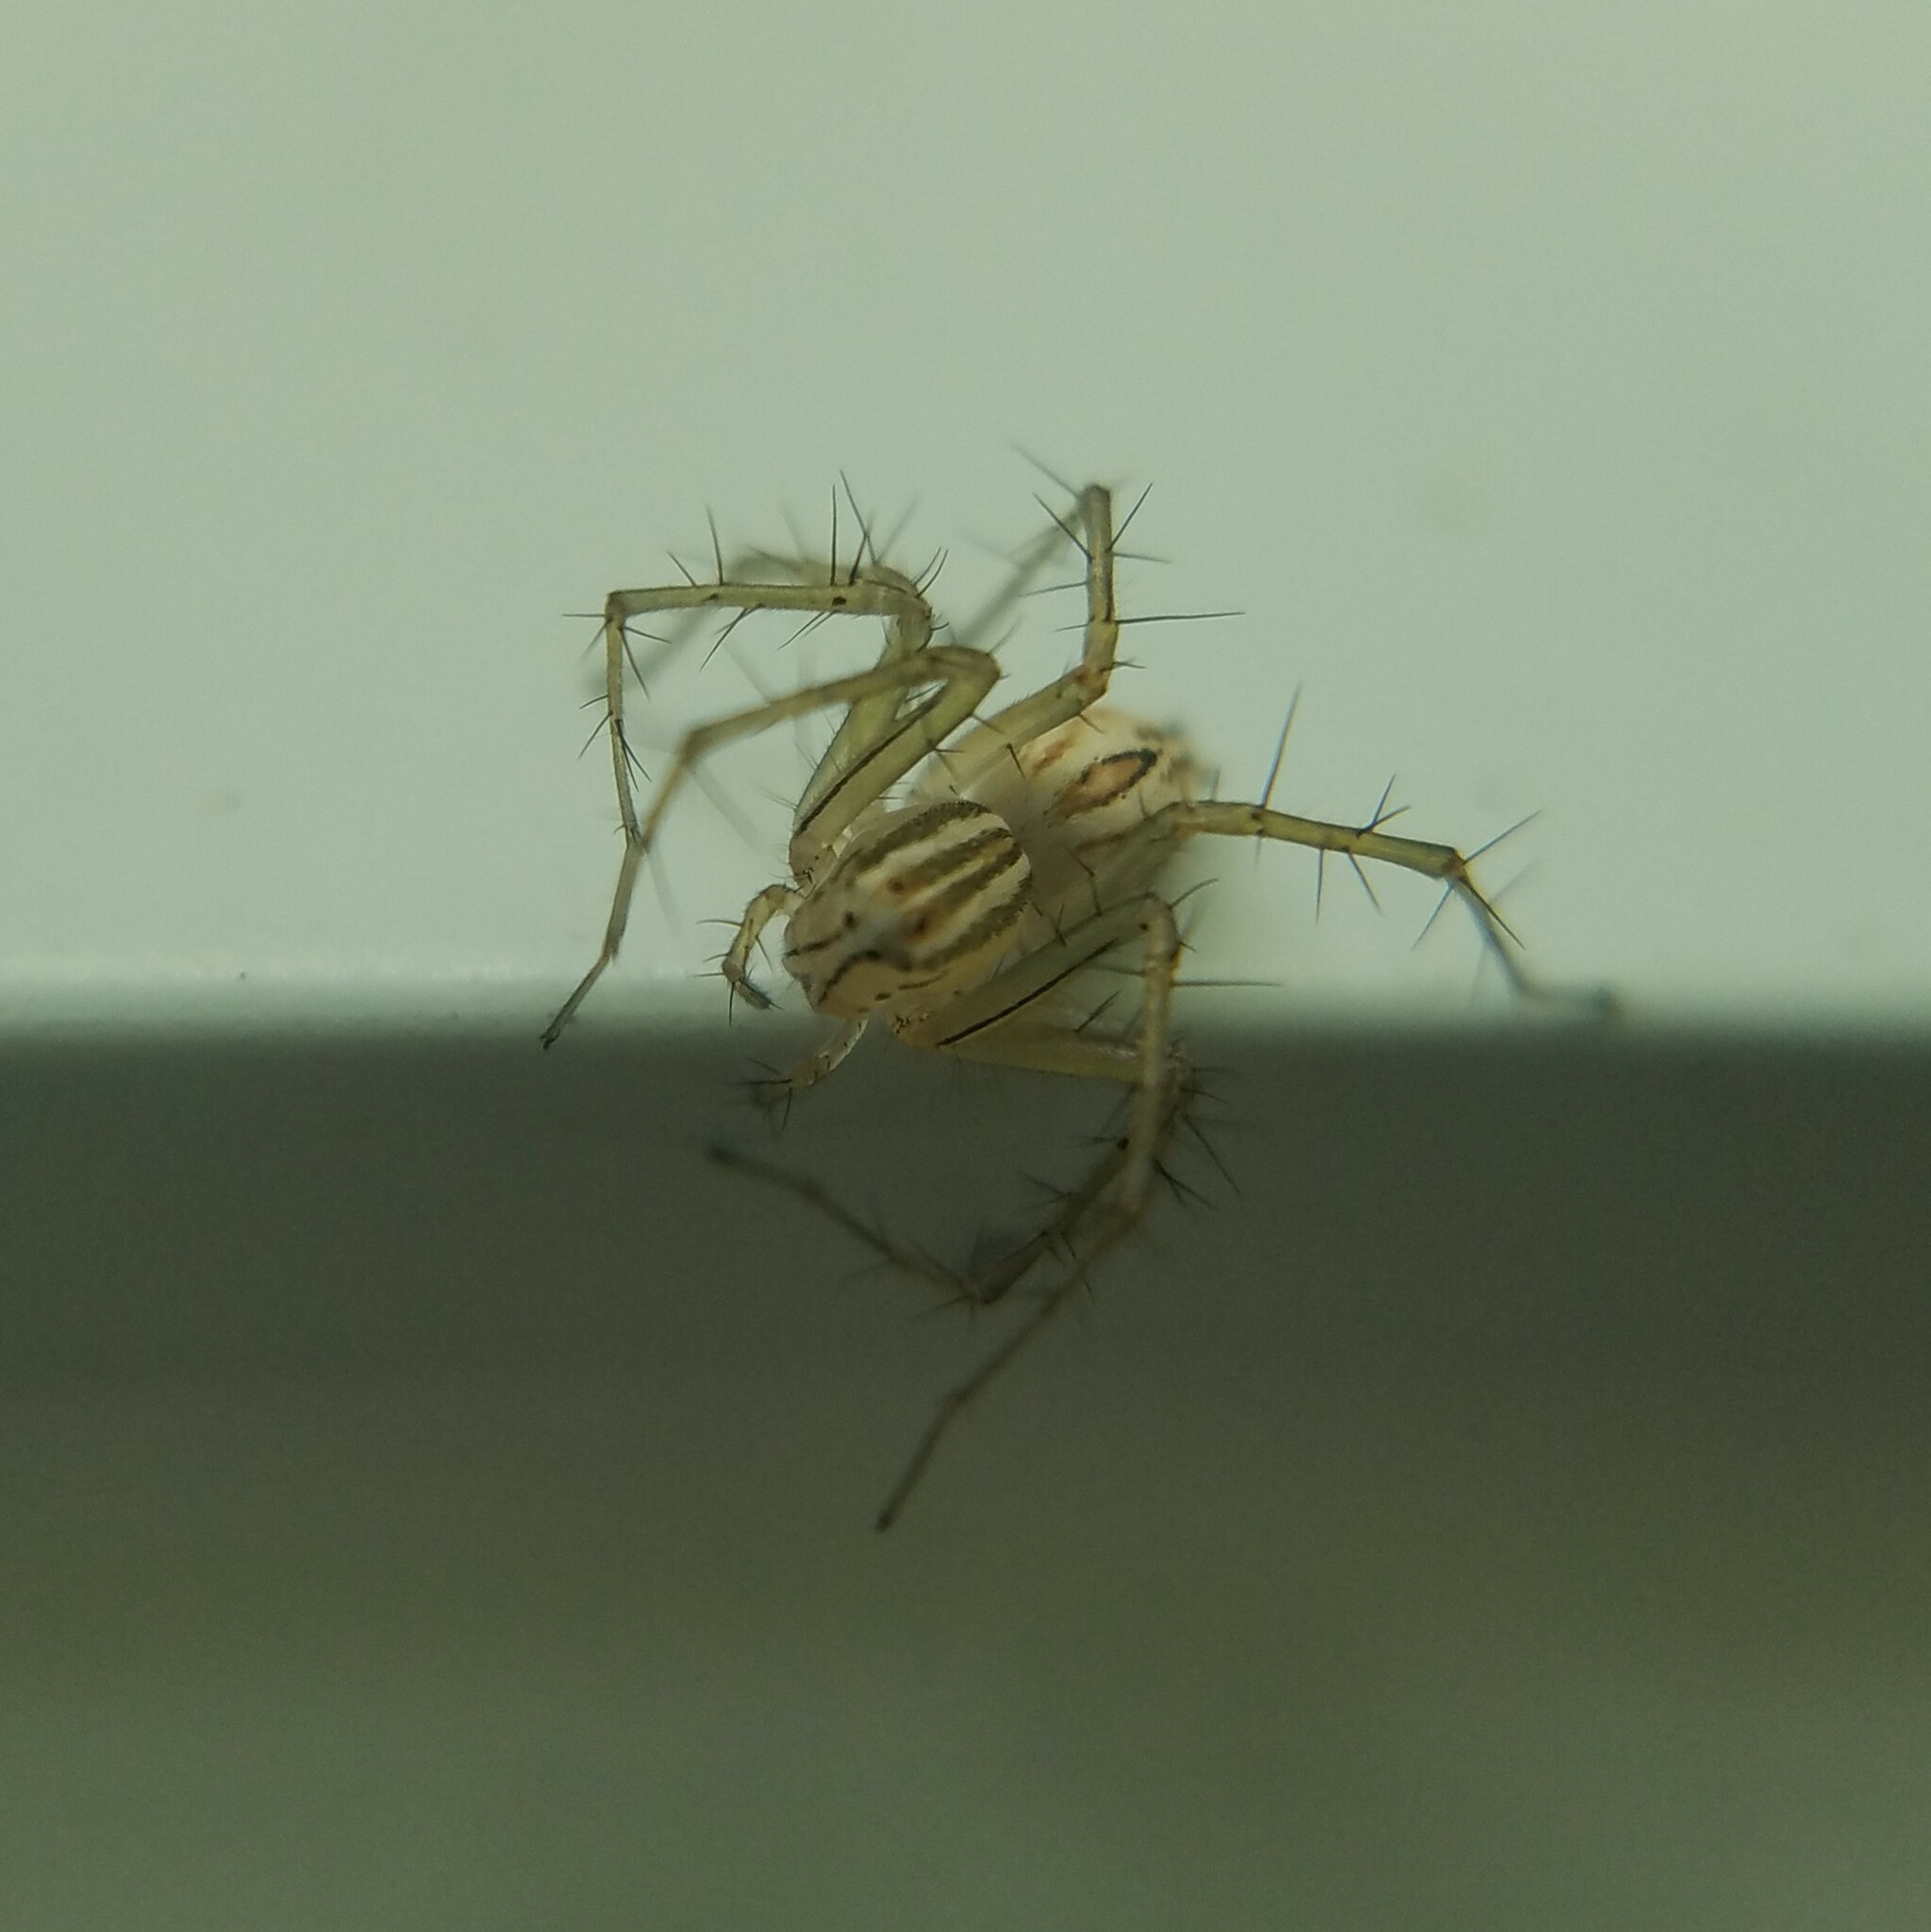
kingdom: Animalia
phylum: Arthropoda
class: Arachnida
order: Araneae
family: Oxyopidae
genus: Oxyopes
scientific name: Oxyopes salticus
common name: Lynx spiders
